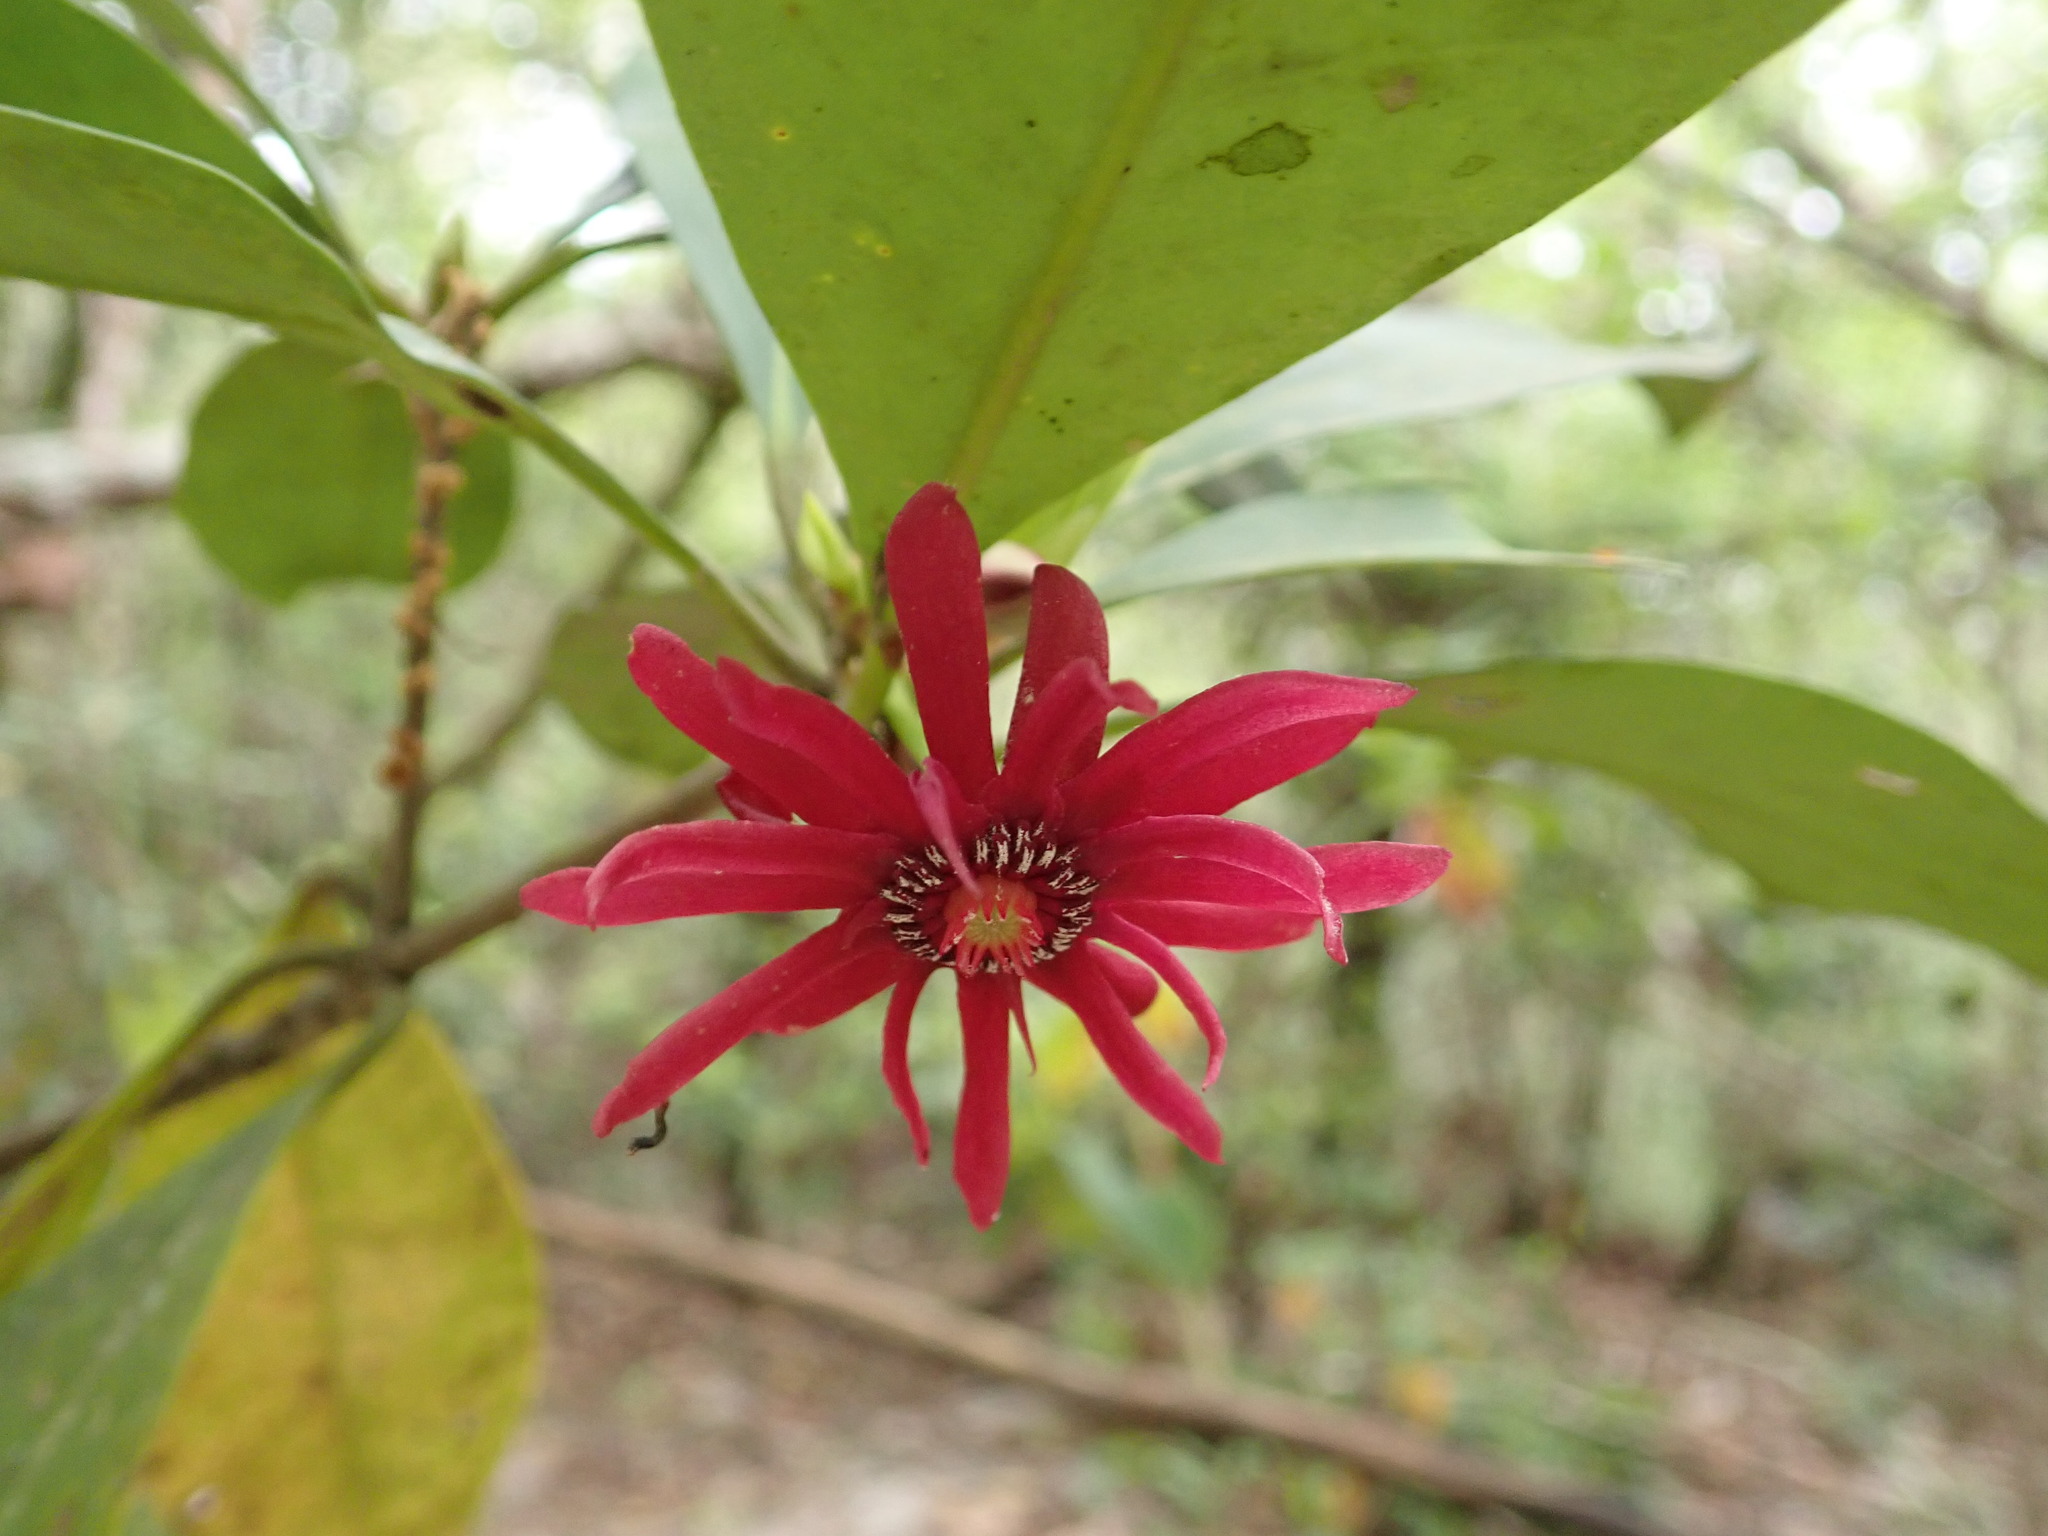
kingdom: Plantae
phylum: Tracheophyta
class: Magnoliopsida
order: Austrobaileyales
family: Schisandraceae
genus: Illicium
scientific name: Illicium floridanum
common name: Florida anisetree
